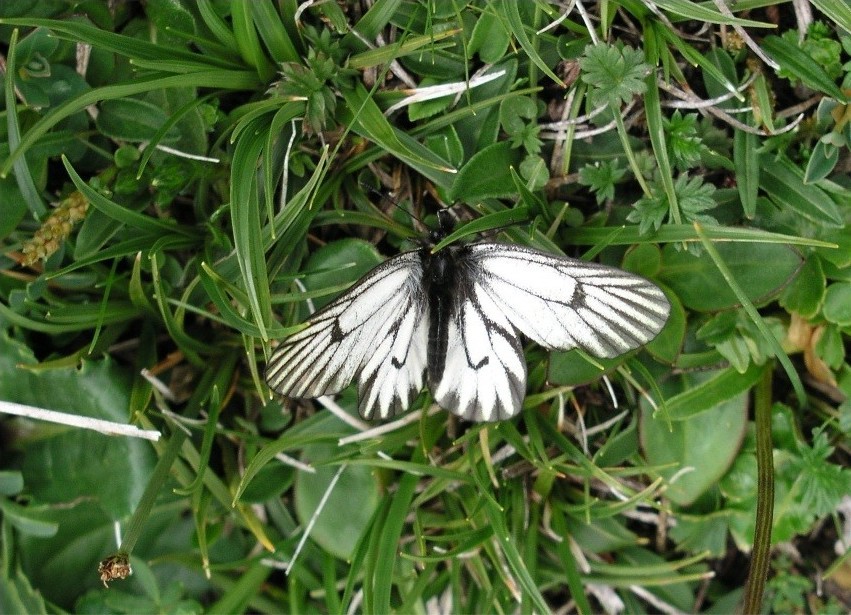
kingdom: Animalia
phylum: Arthropoda
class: Insecta
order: Lepidoptera
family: Pieridae
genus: Mesapia
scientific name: Mesapia peloria
